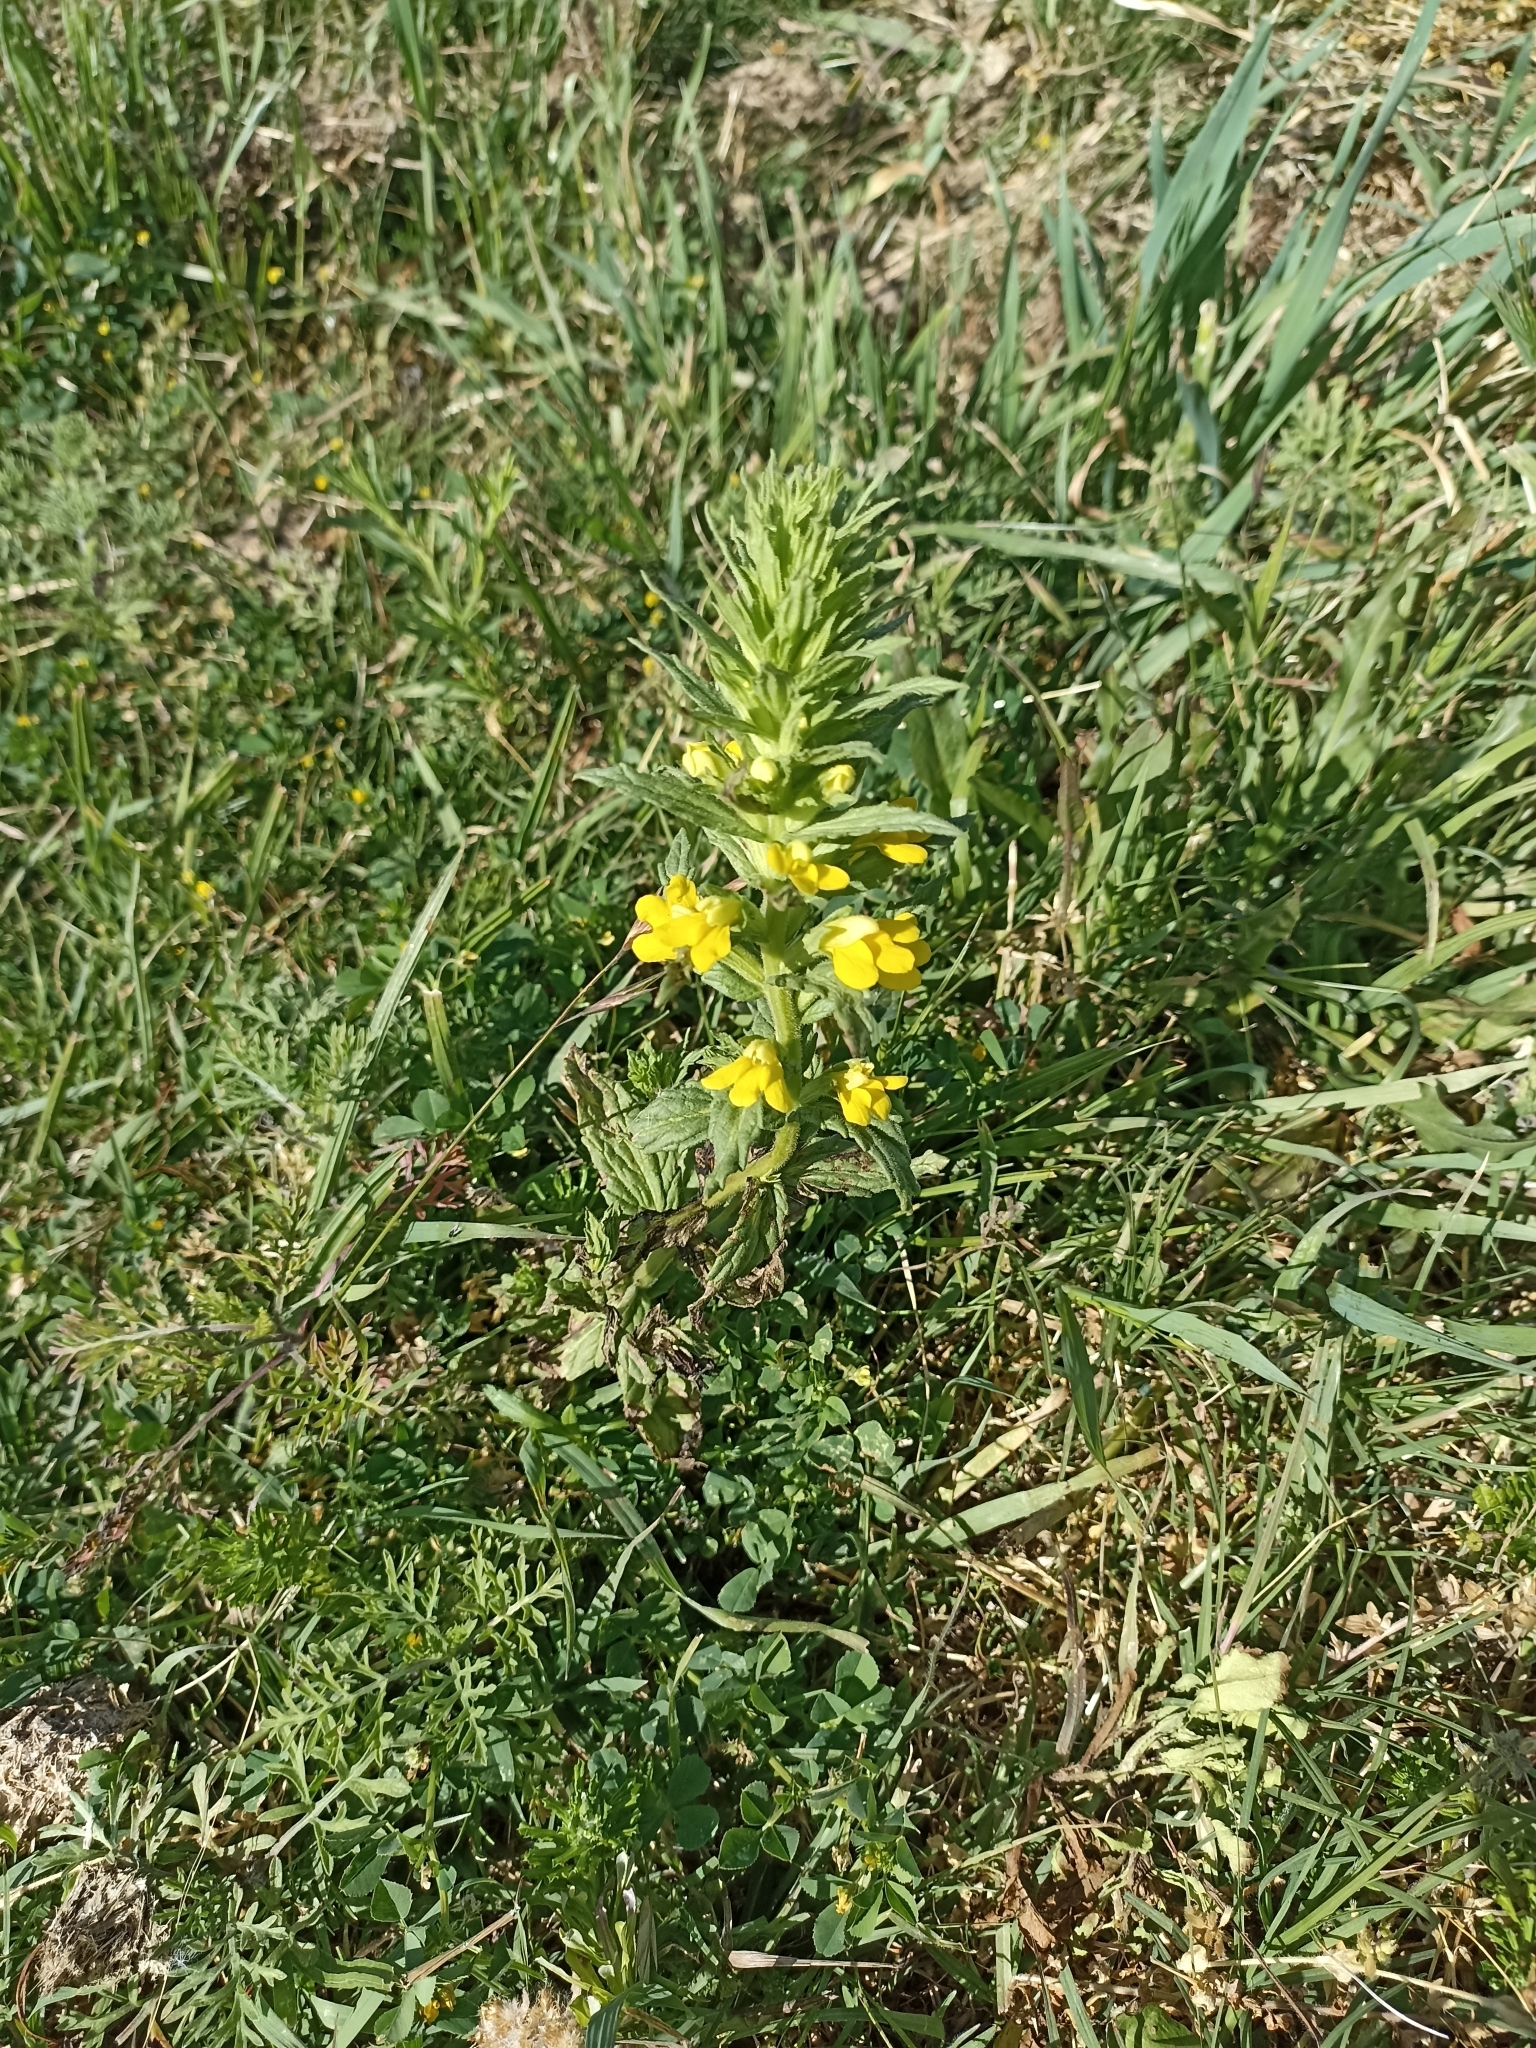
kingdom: Plantae
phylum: Tracheophyta
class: Magnoliopsida
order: Lamiales
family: Orobanchaceae
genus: Bellardia
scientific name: Bellardia viscosa
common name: Sticky parentucellia
